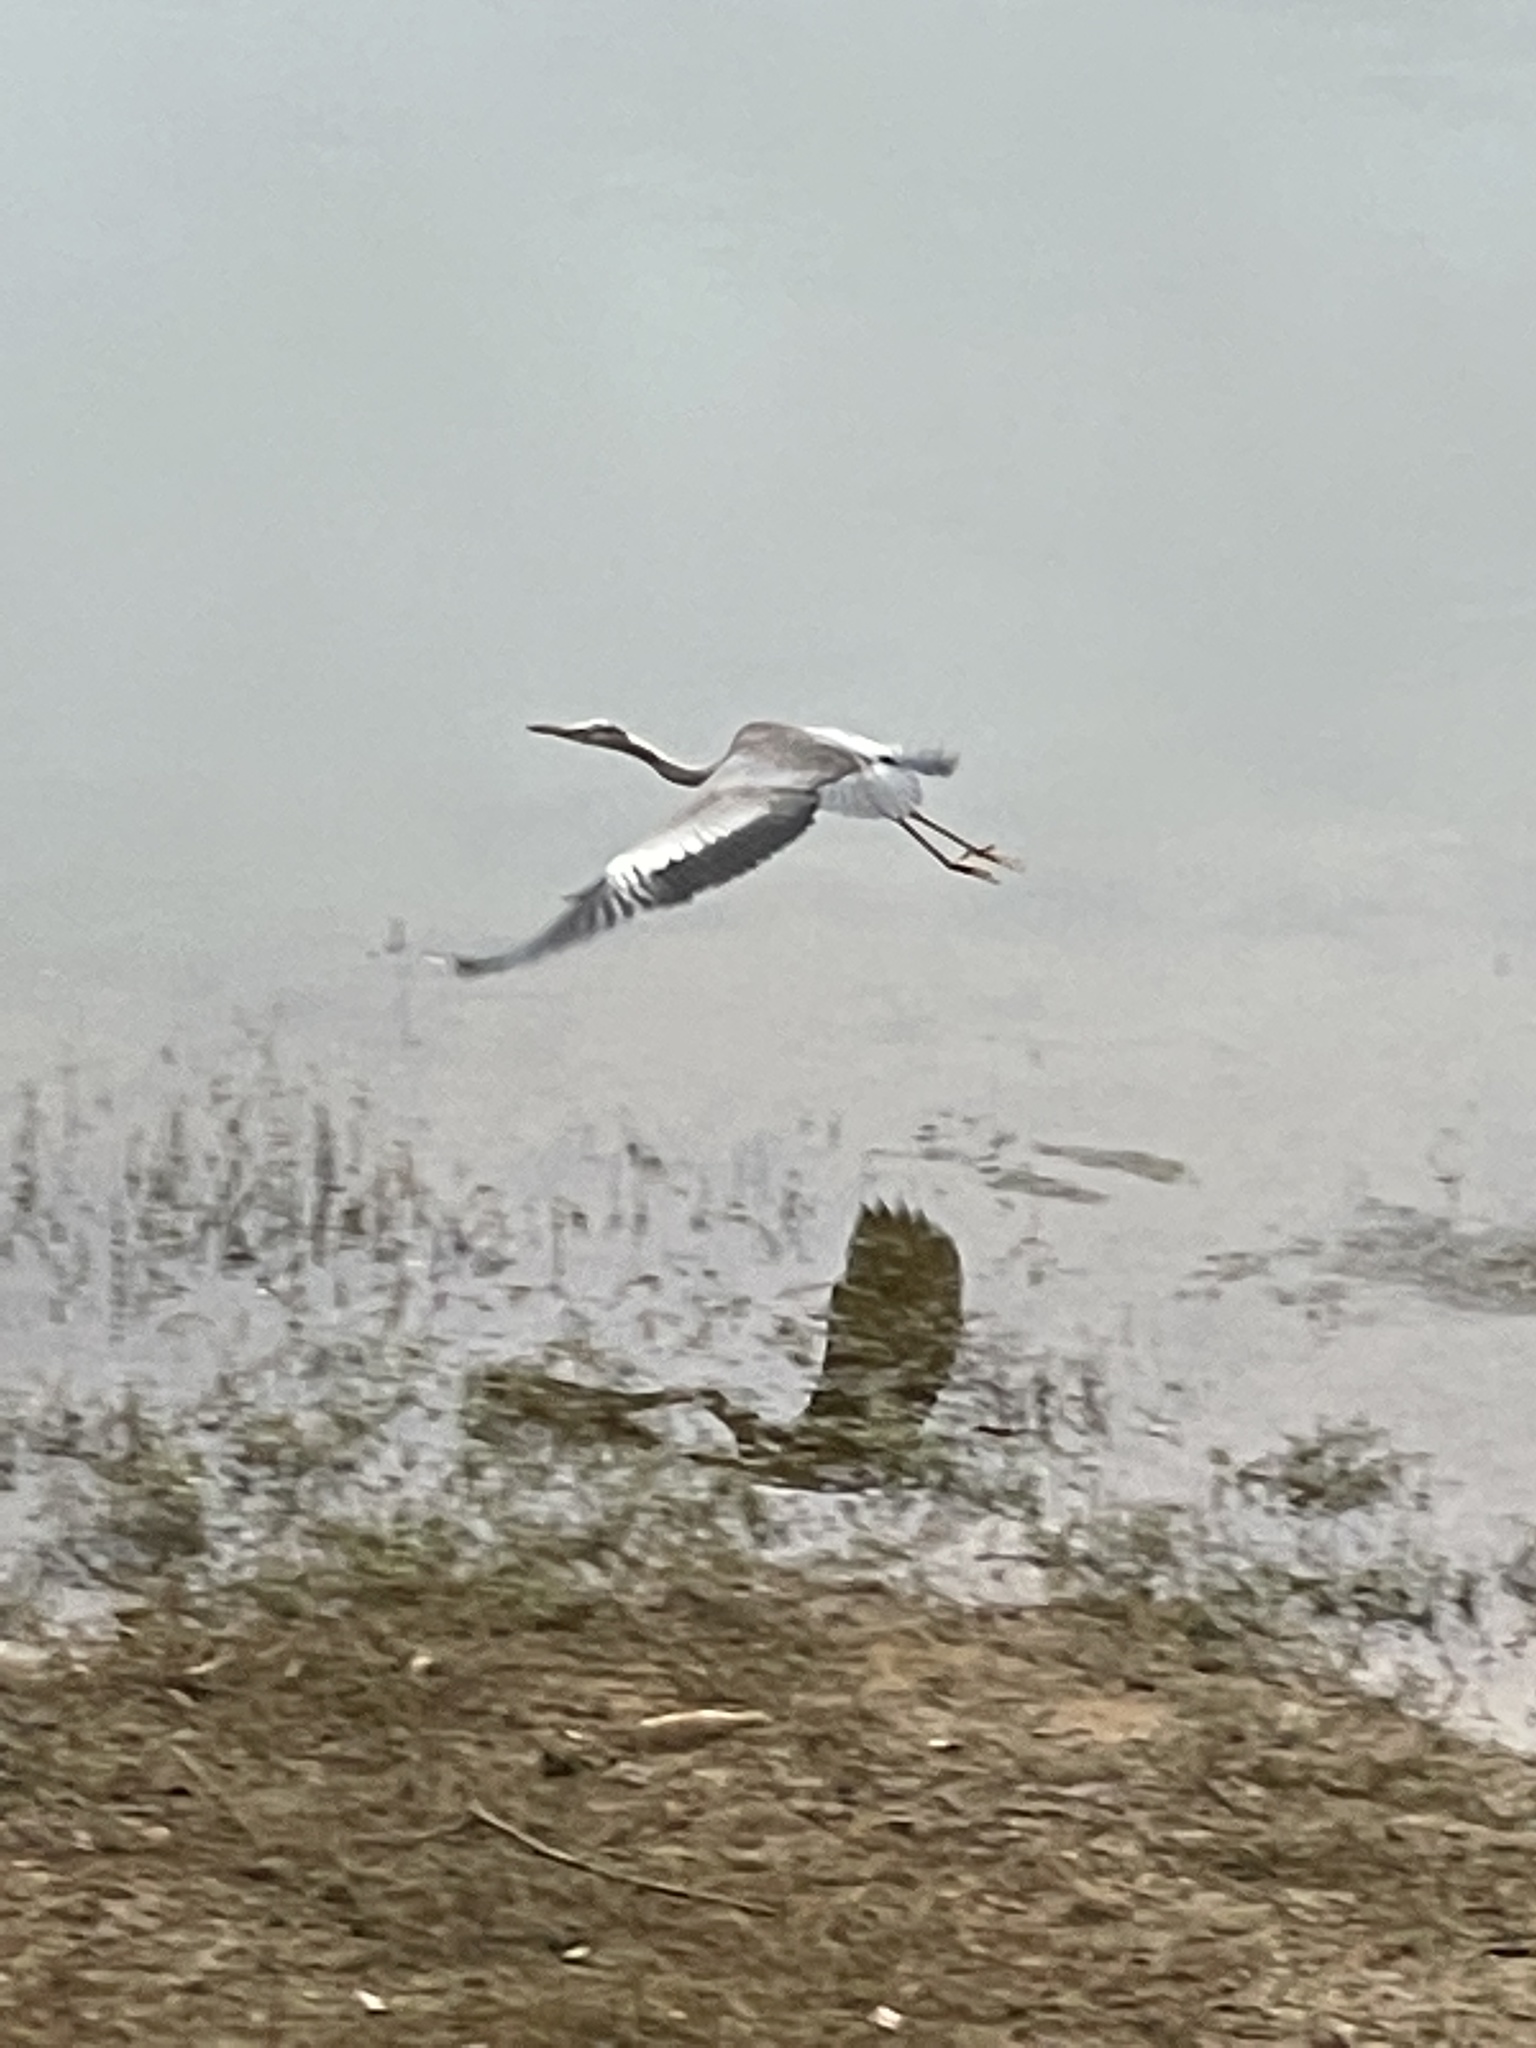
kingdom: Animalia
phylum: Chordata
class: Aves
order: Pelecaniformes
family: Ardeidae
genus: Ardea
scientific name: Ardea cinerea
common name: Grey heron
